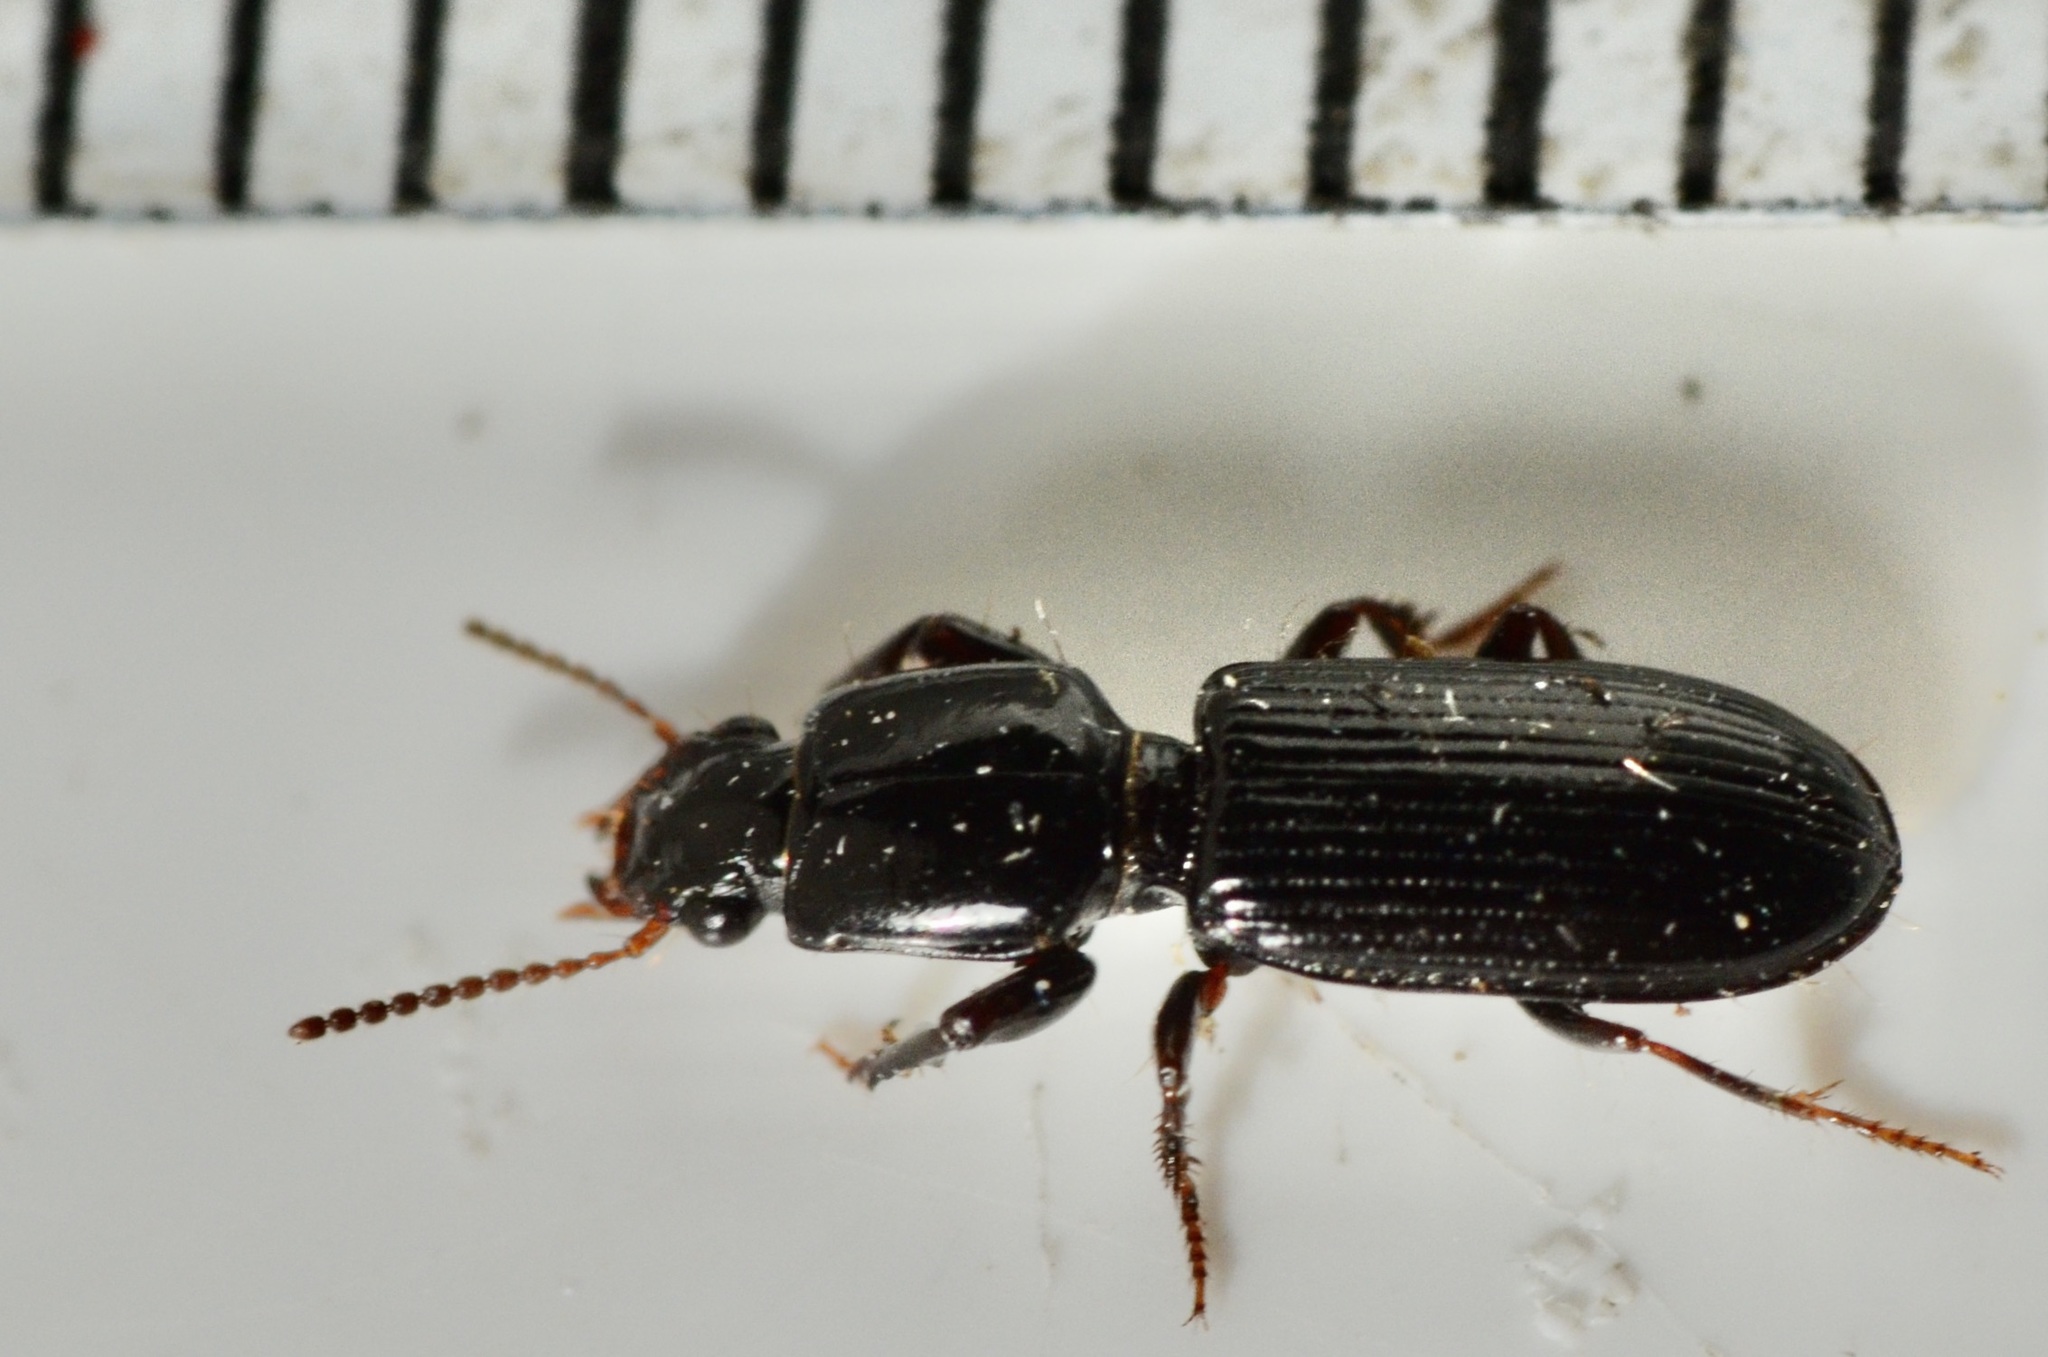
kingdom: Animalia
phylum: Arthropoda
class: Insecta
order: Coleoptera
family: Carabidae
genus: Clivina
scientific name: Clivina vagans
